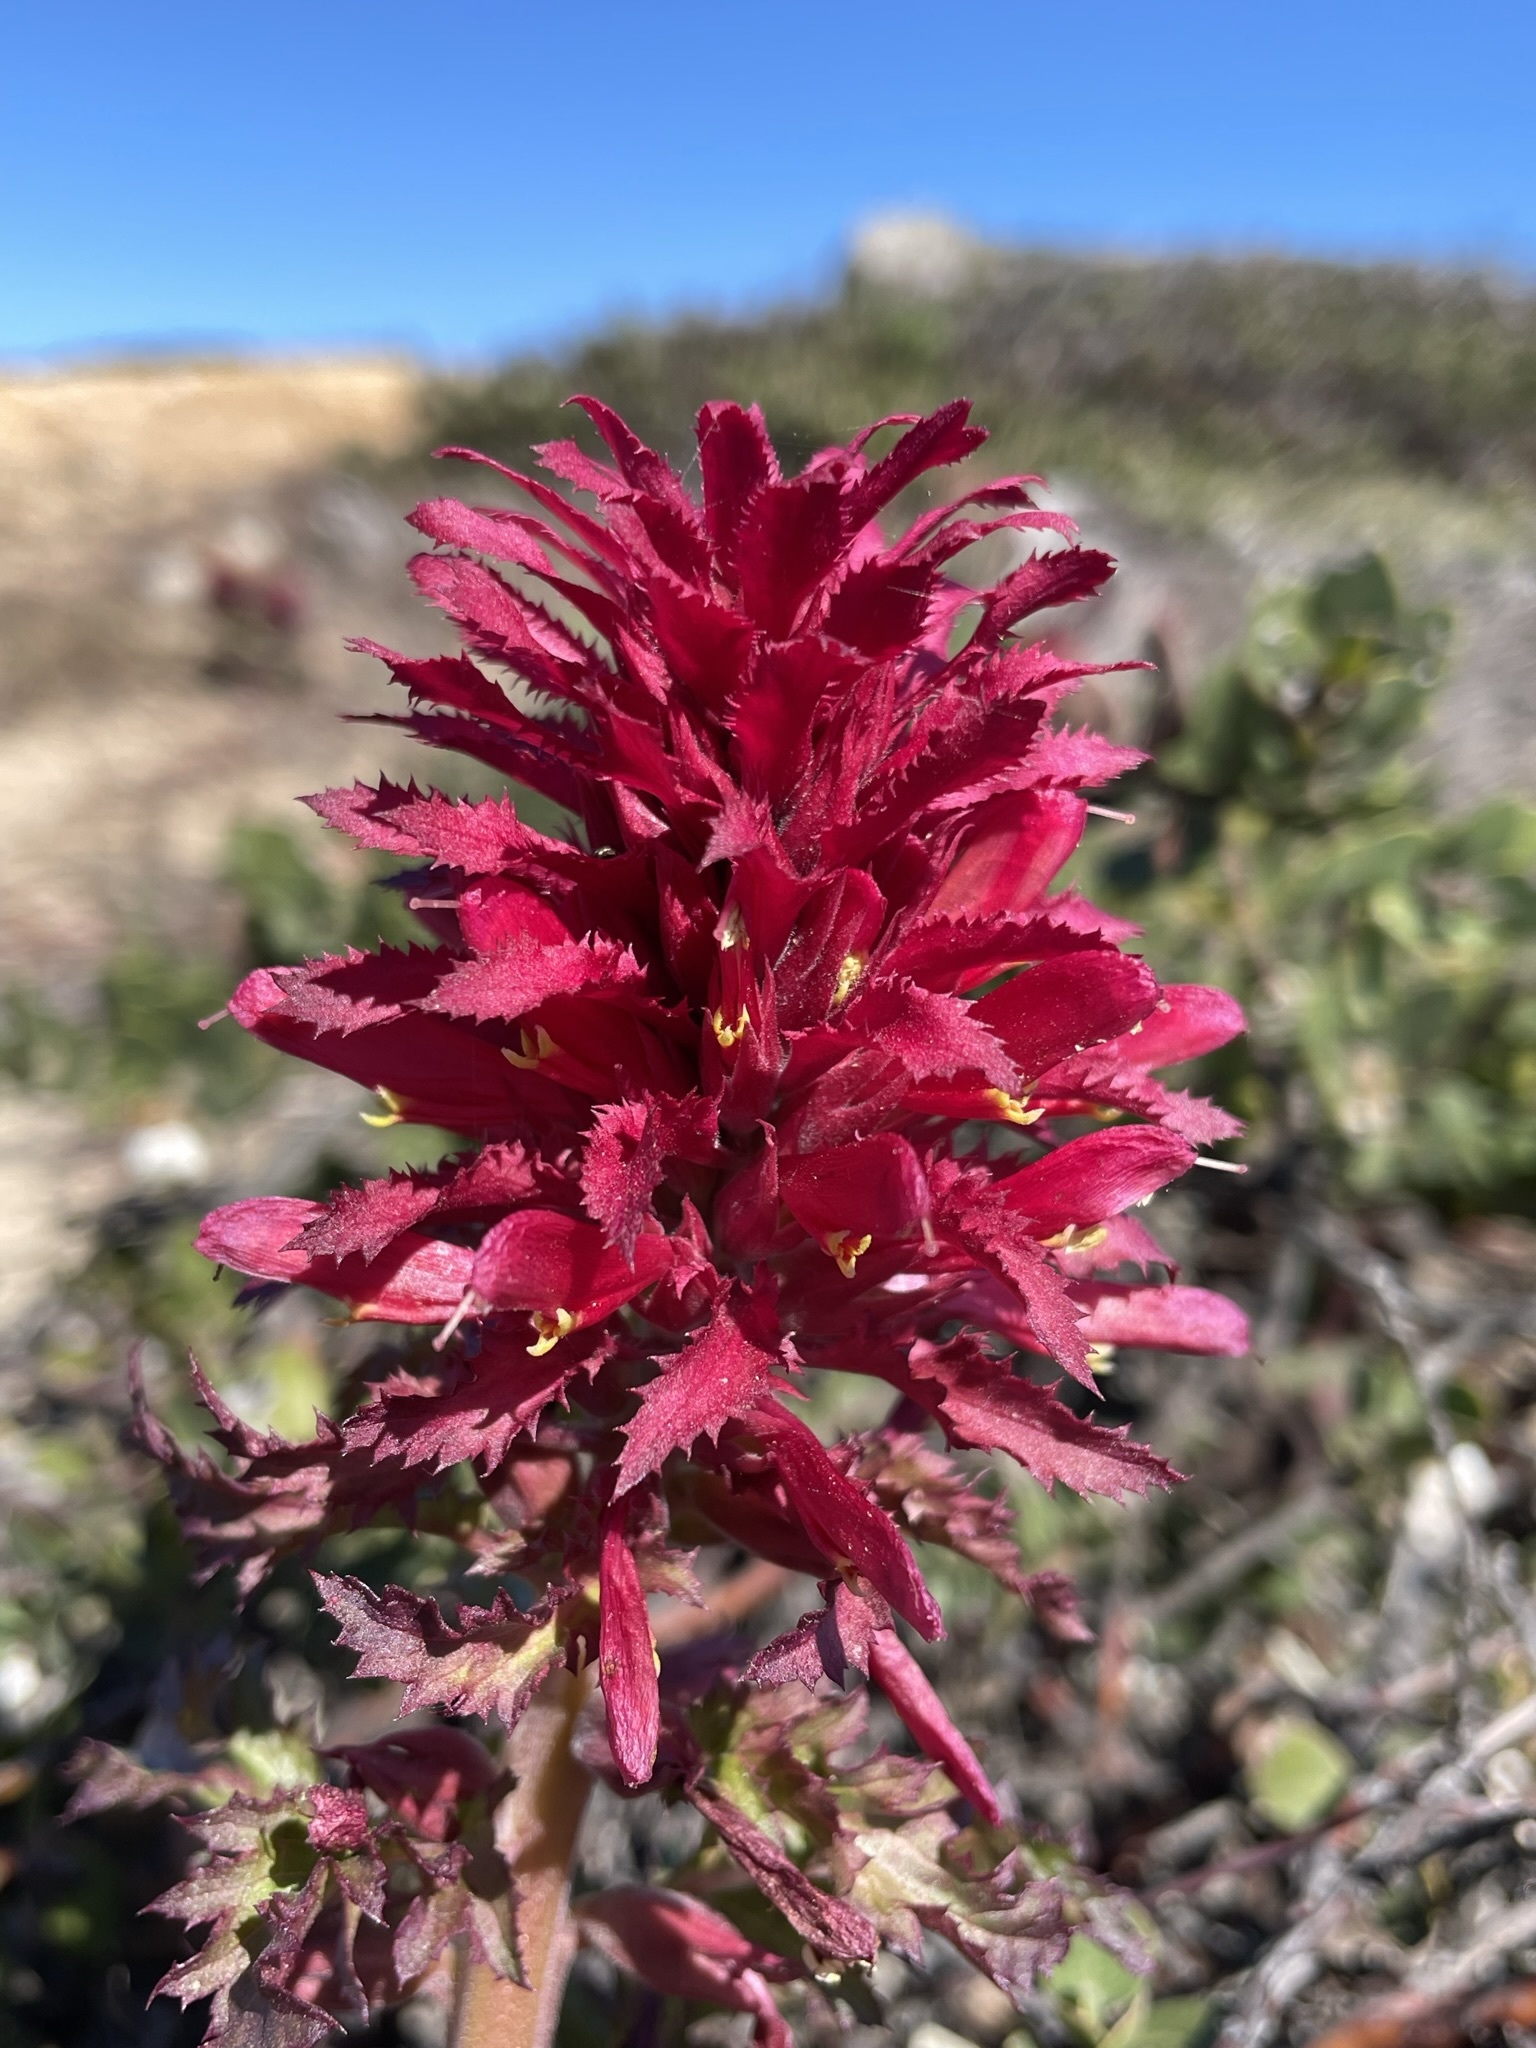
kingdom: Plantae
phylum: Tracheophyta
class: Magnoliopsida
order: Lamiales
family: Orobanchaceae
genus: Pedicularis
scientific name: Pedicularis densiflora
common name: Indian warrior
